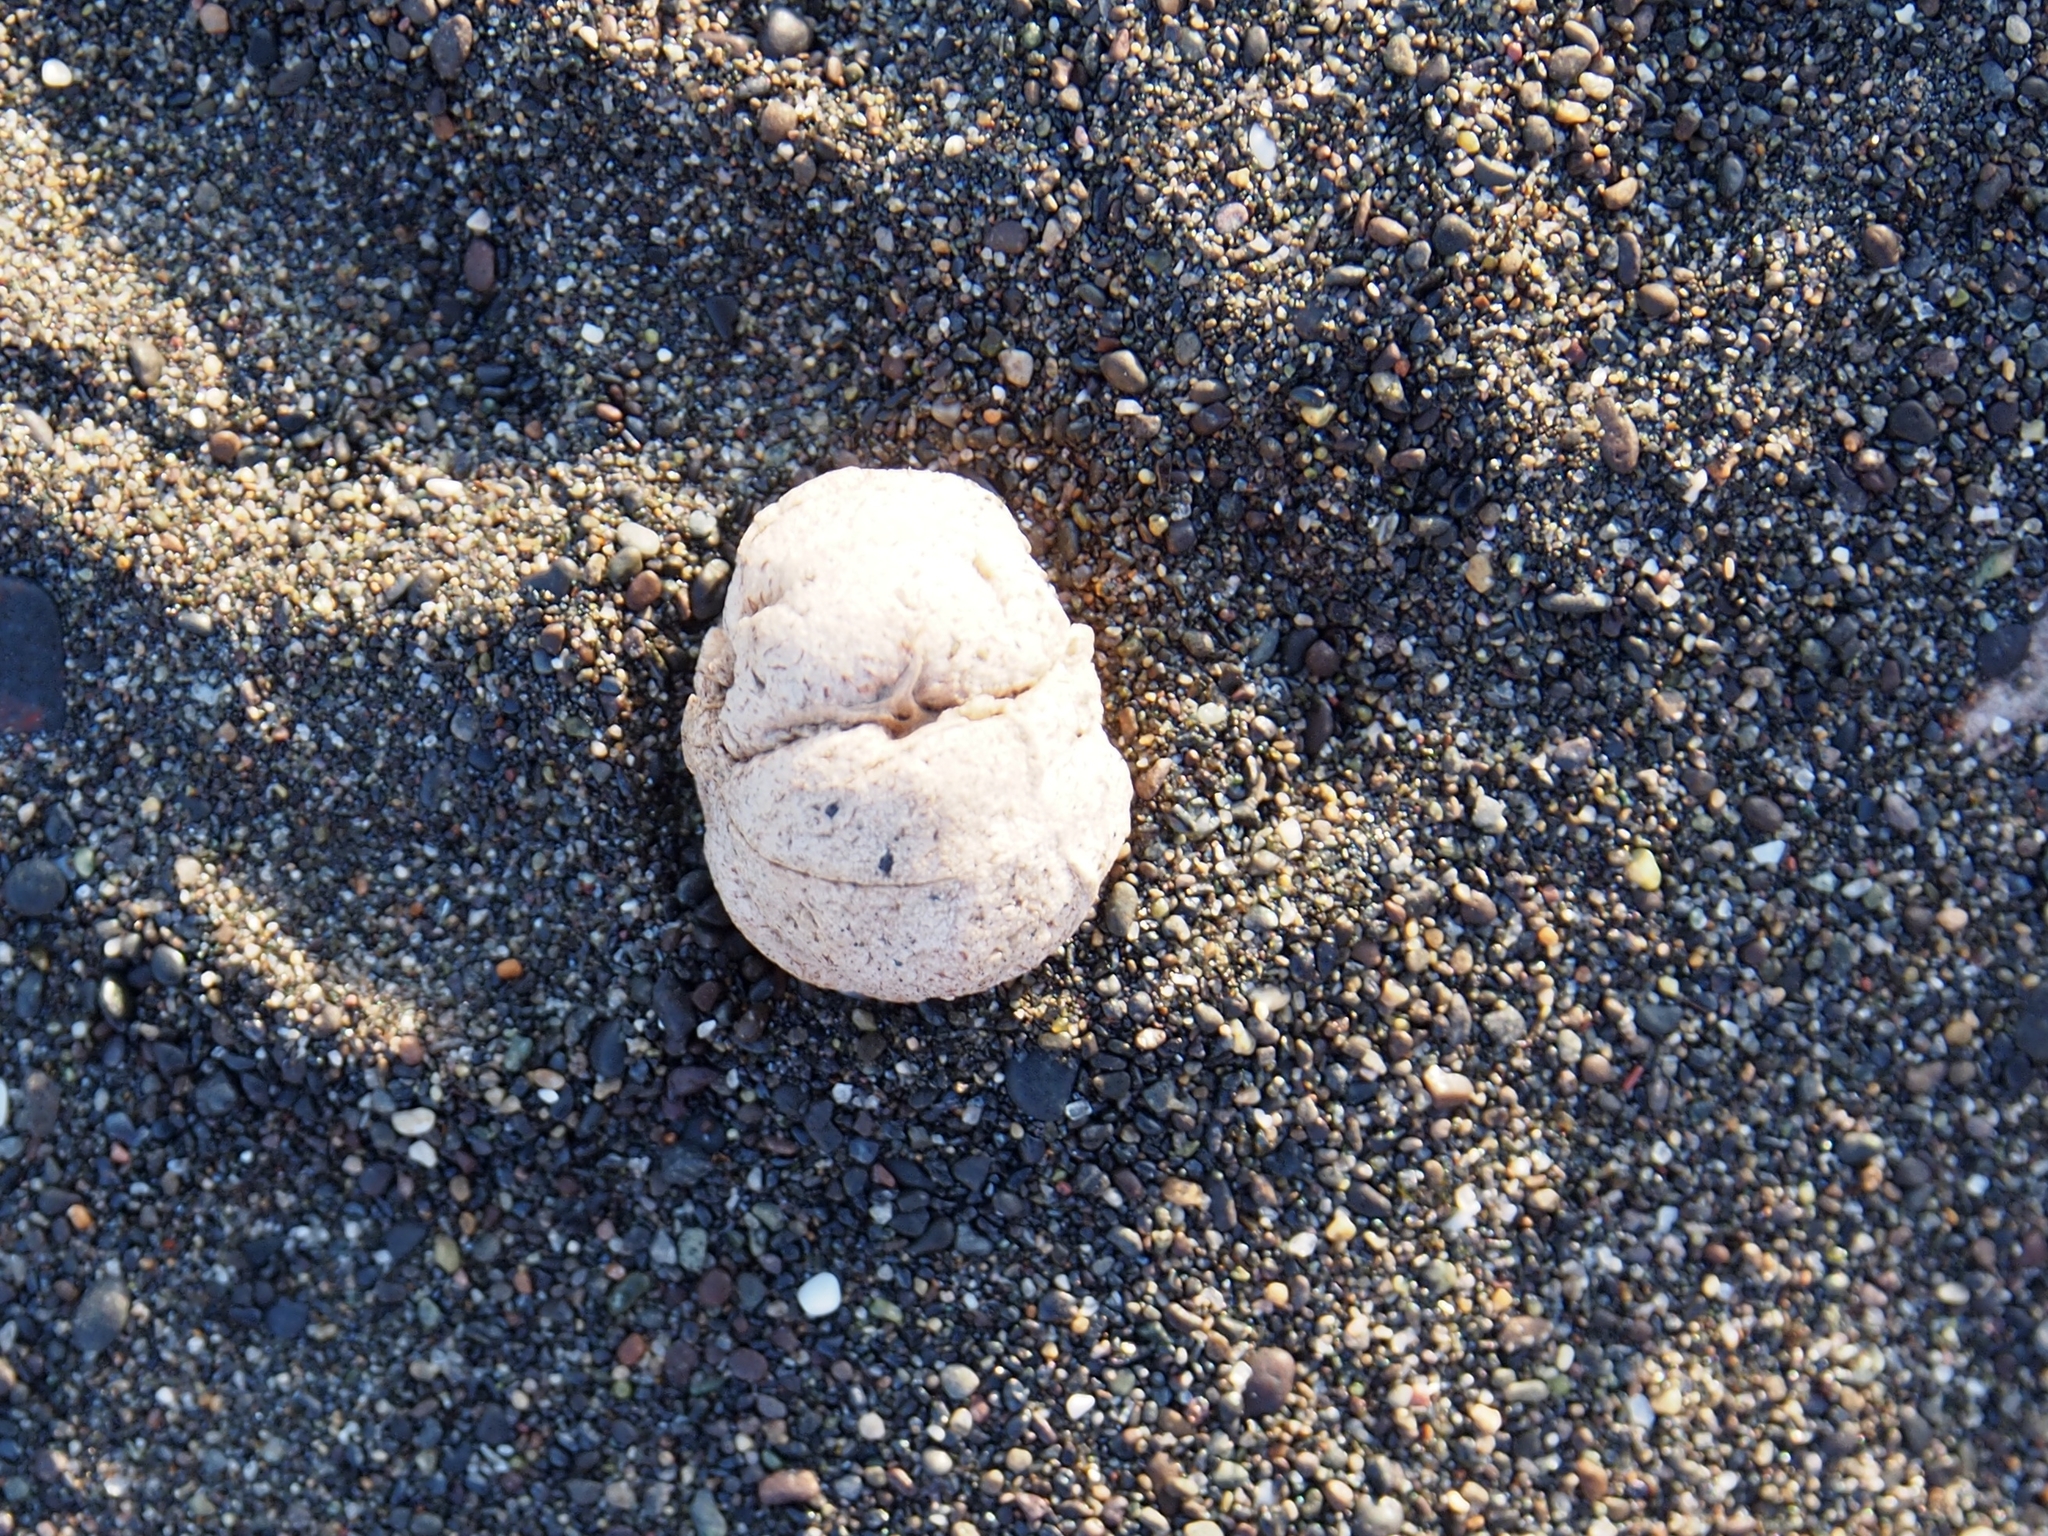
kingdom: Plantae
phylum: Tracheophyta
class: Magnoliopsida
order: Malpighiales
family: Euphorbiaceae
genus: Hippomane
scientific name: Hippomane mancinella
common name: Manchineel
